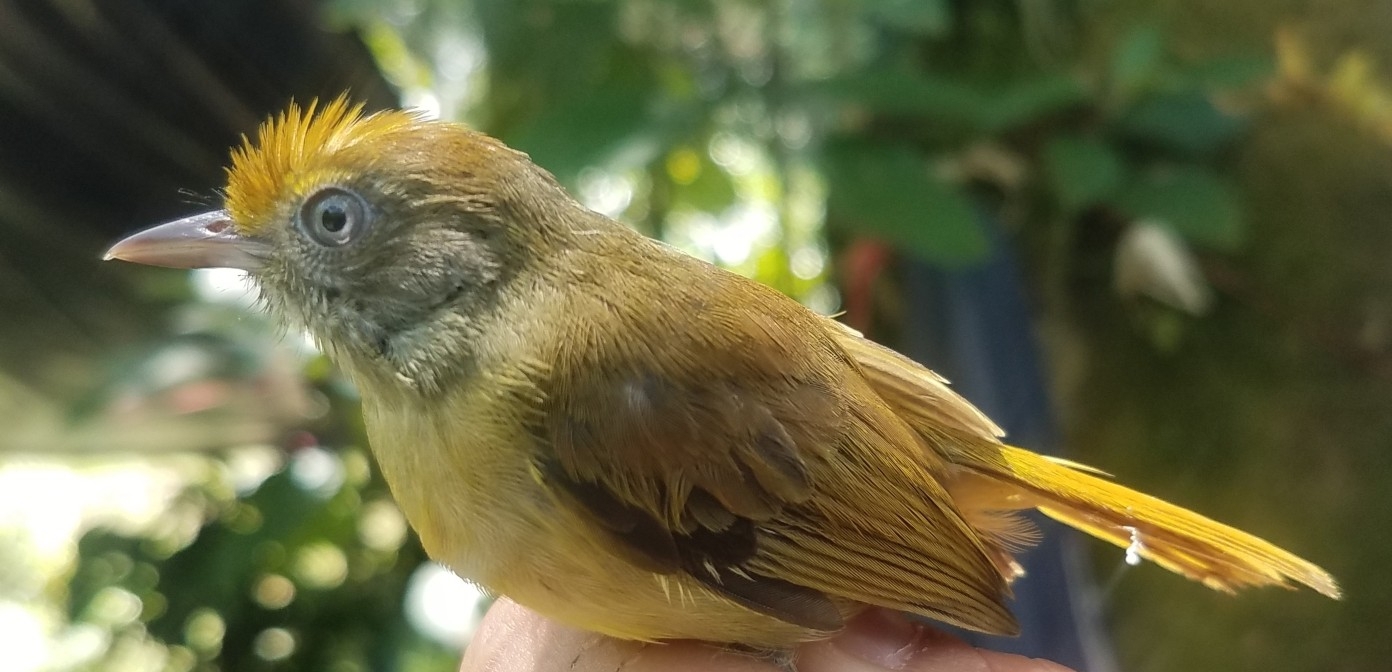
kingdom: Animalia
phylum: Chordata
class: Aves
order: Passeriformes
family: Thamnophilidae
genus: Thamnophilus
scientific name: Thamnophilus doliatus
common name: Barred antshrike
